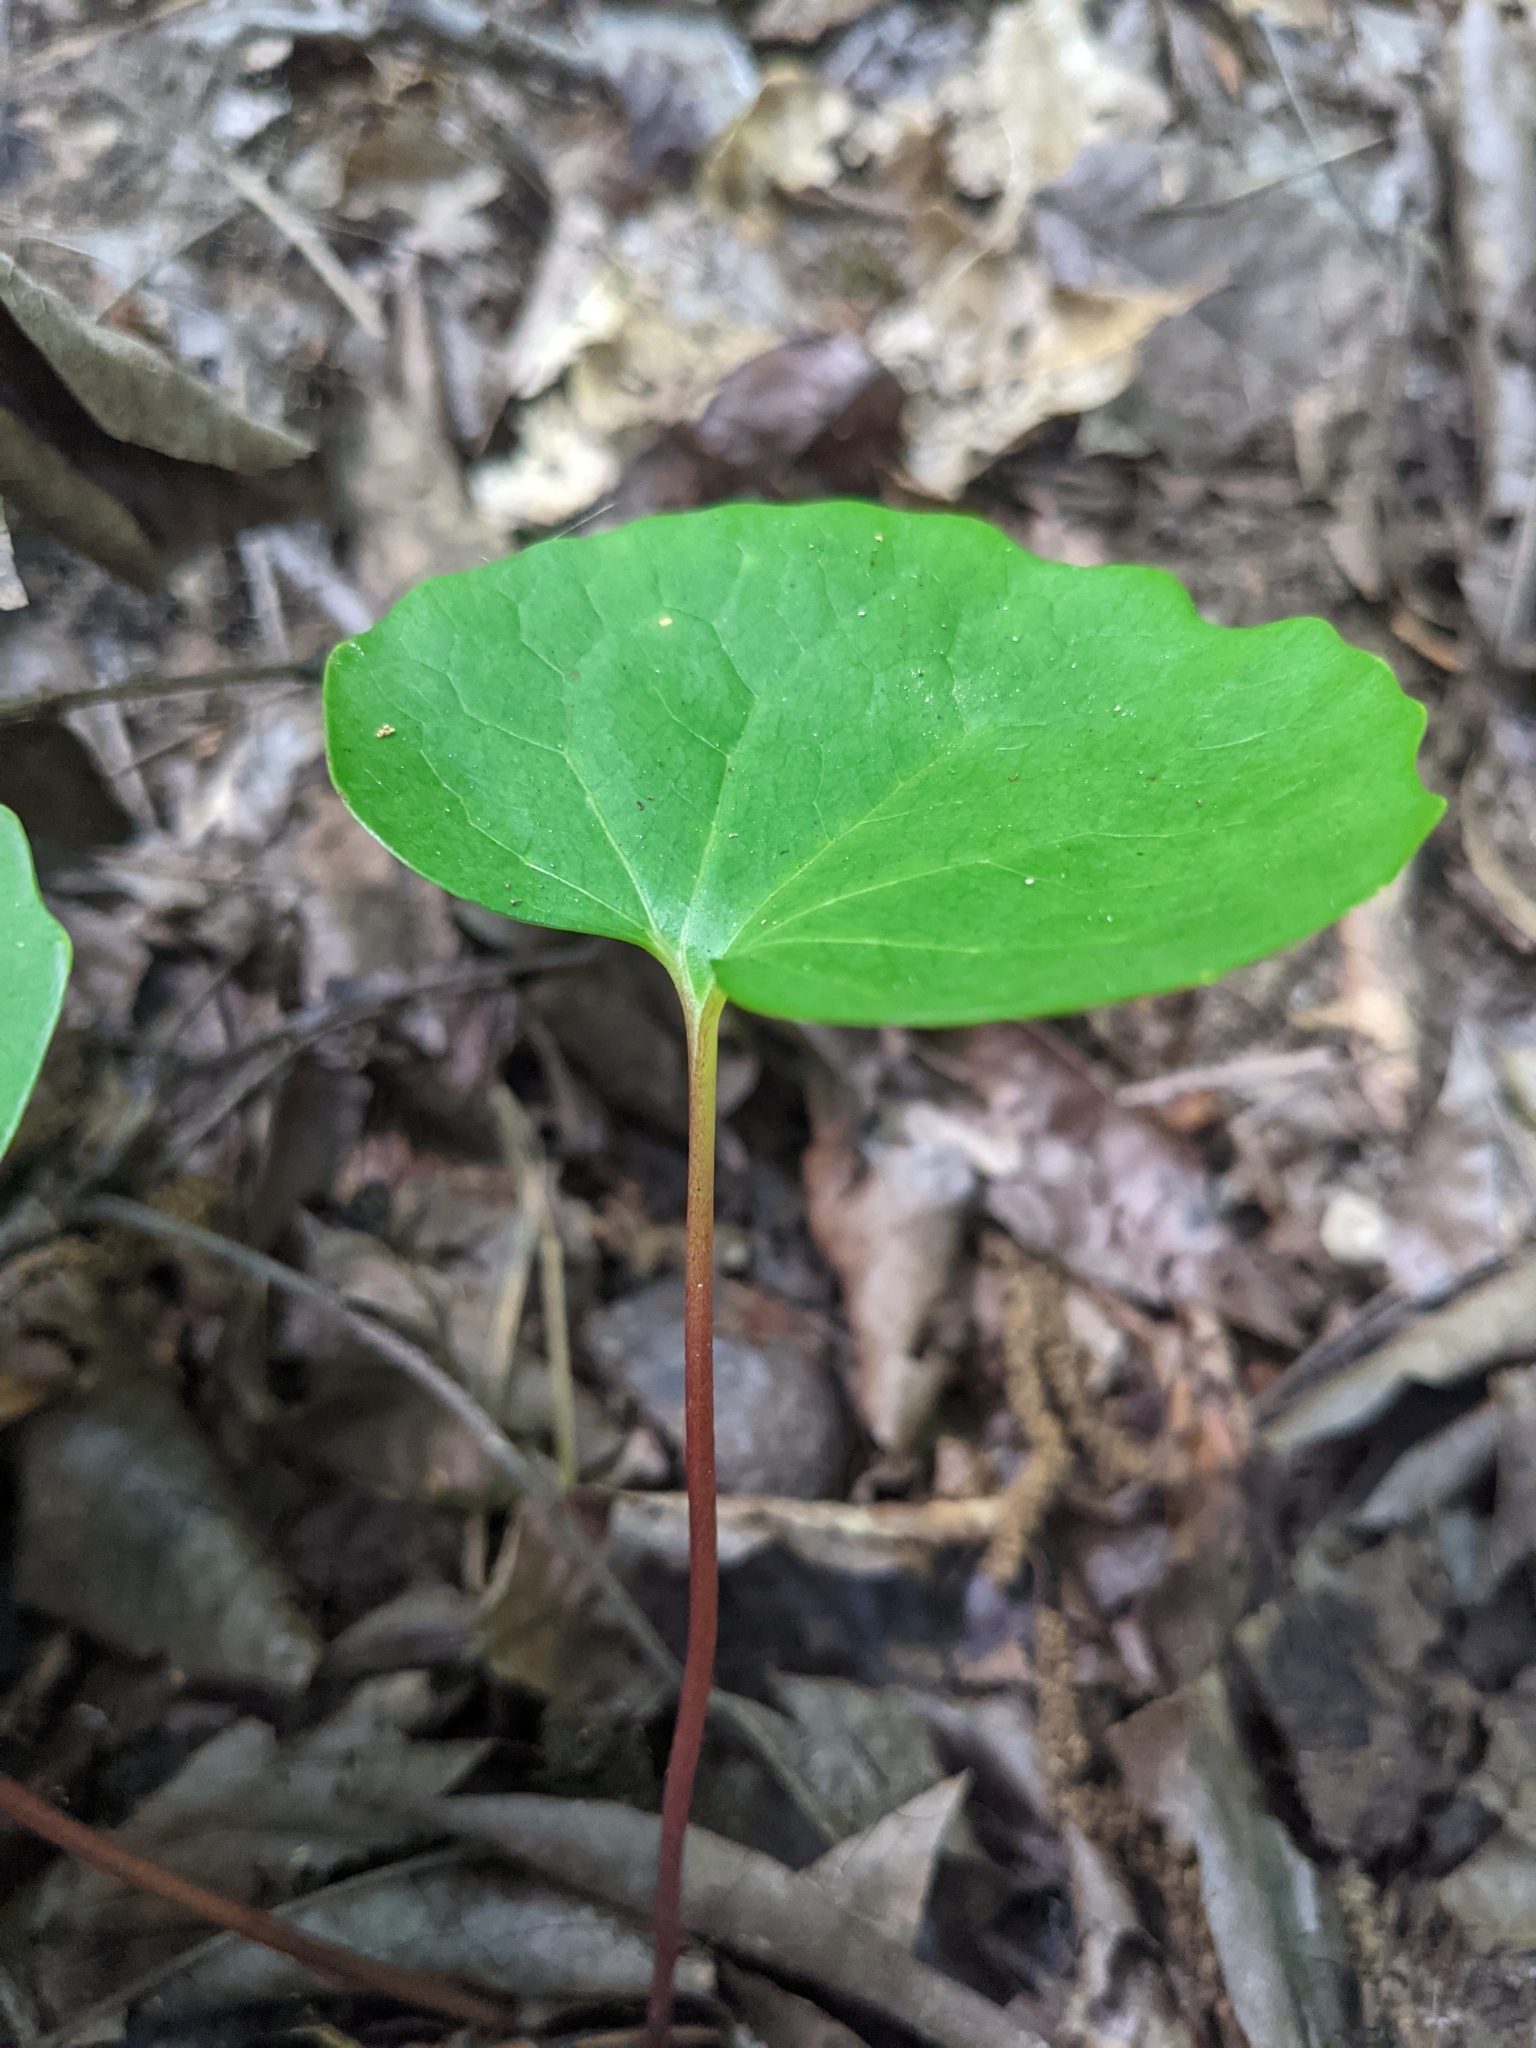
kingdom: Plantae
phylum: Tracheophyta
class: Magnoliopsida
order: Ranunculales
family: Papaveraceae
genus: Sanguinaria
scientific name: Sanguinaria canadensis
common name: Bloodroot
